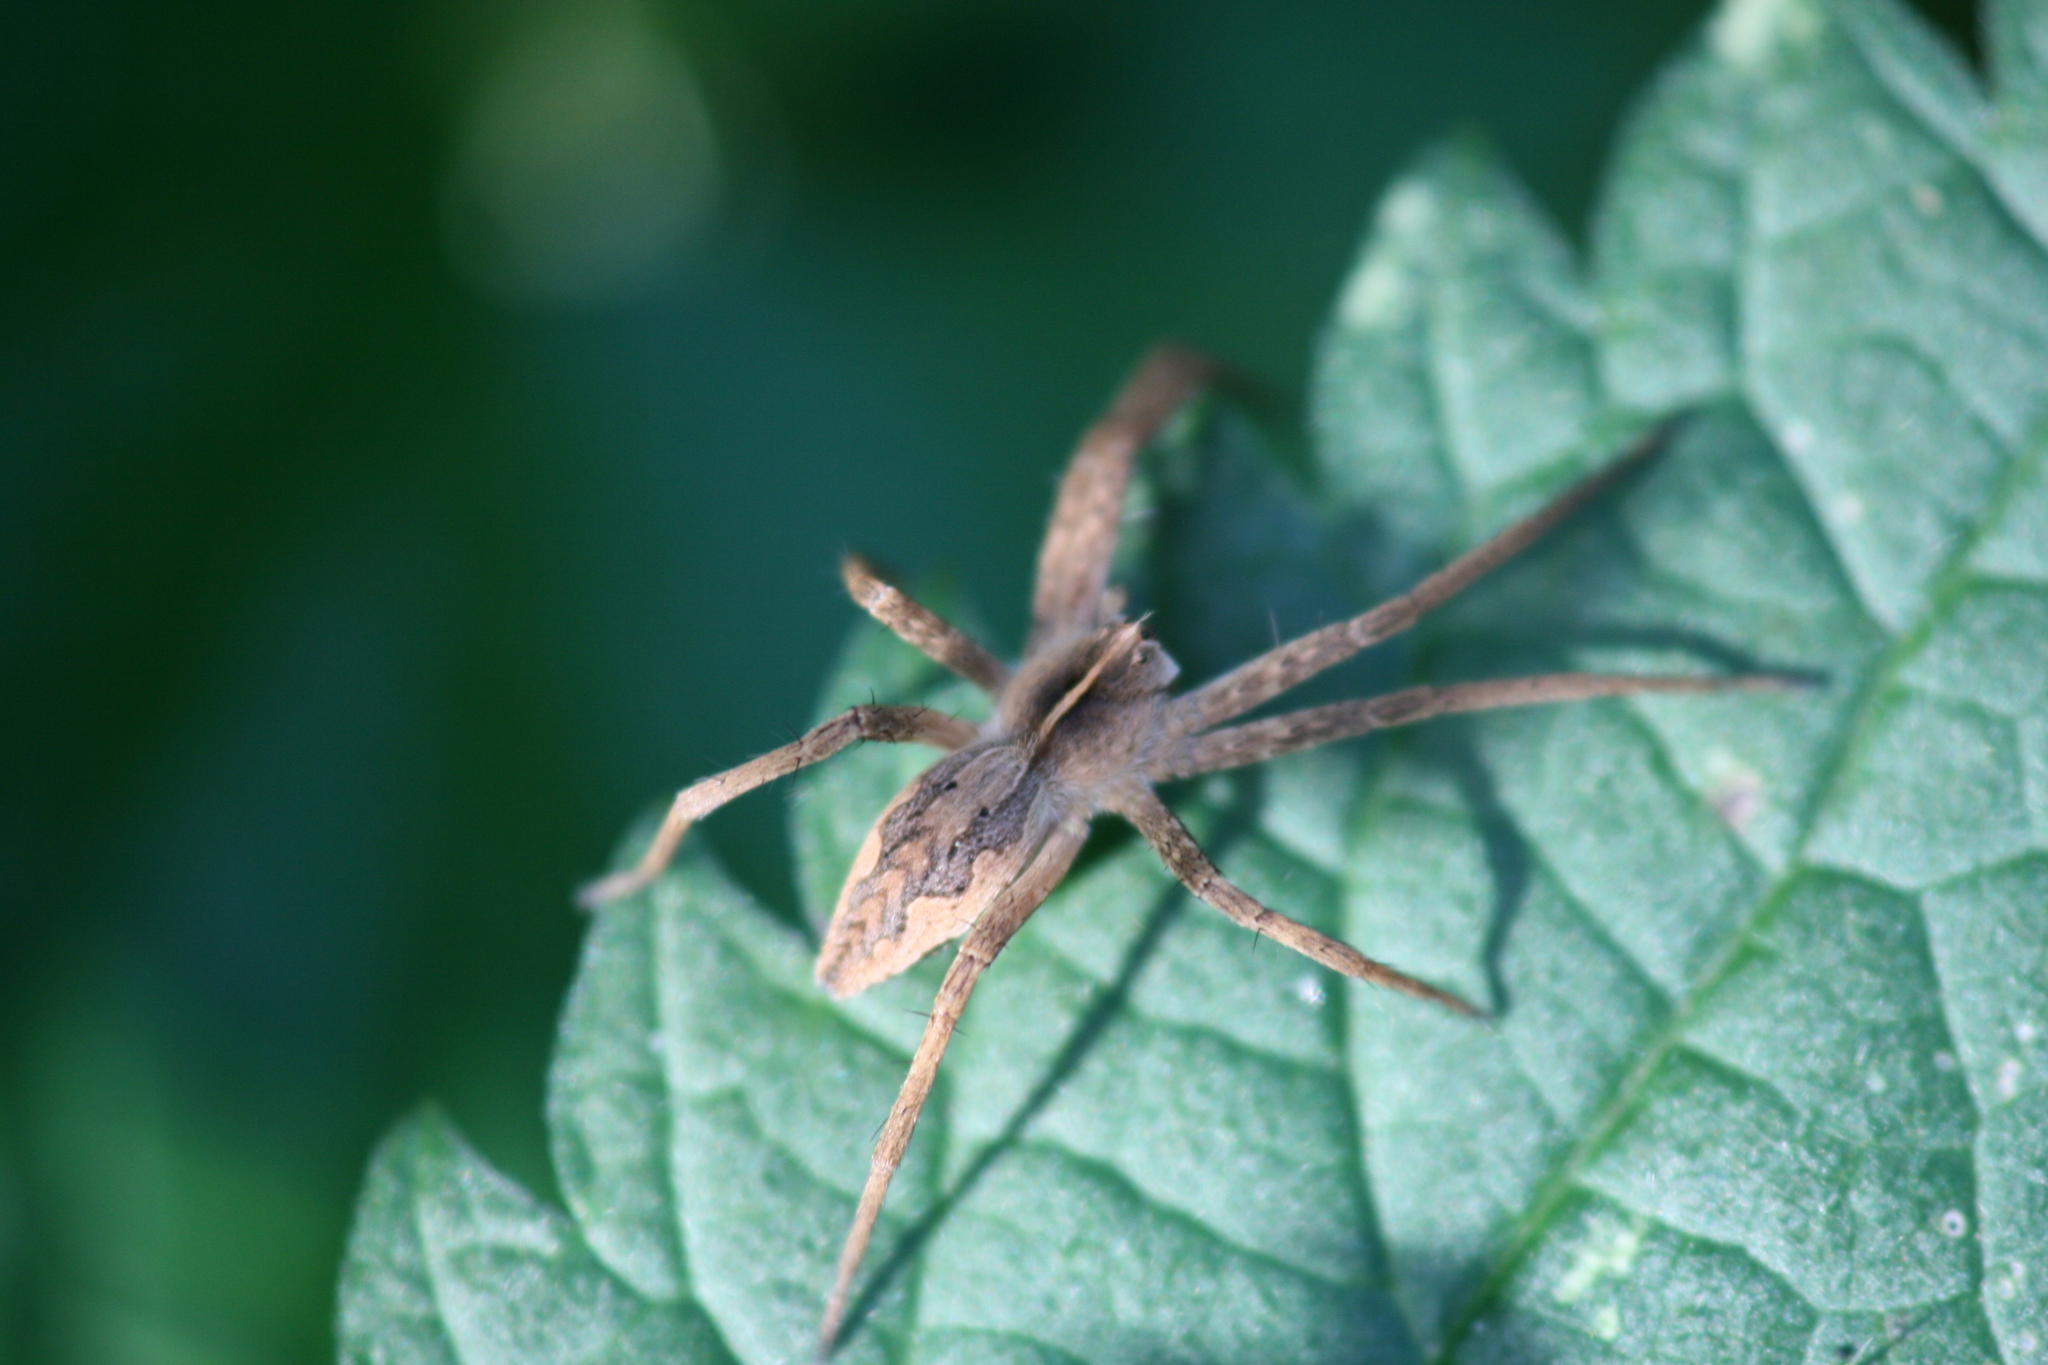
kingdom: Animalia
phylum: Arthropoda
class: Arachnida
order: Araneae
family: Pisauridae
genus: Pisaura
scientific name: Pisaura mirabilis
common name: Tent spider
